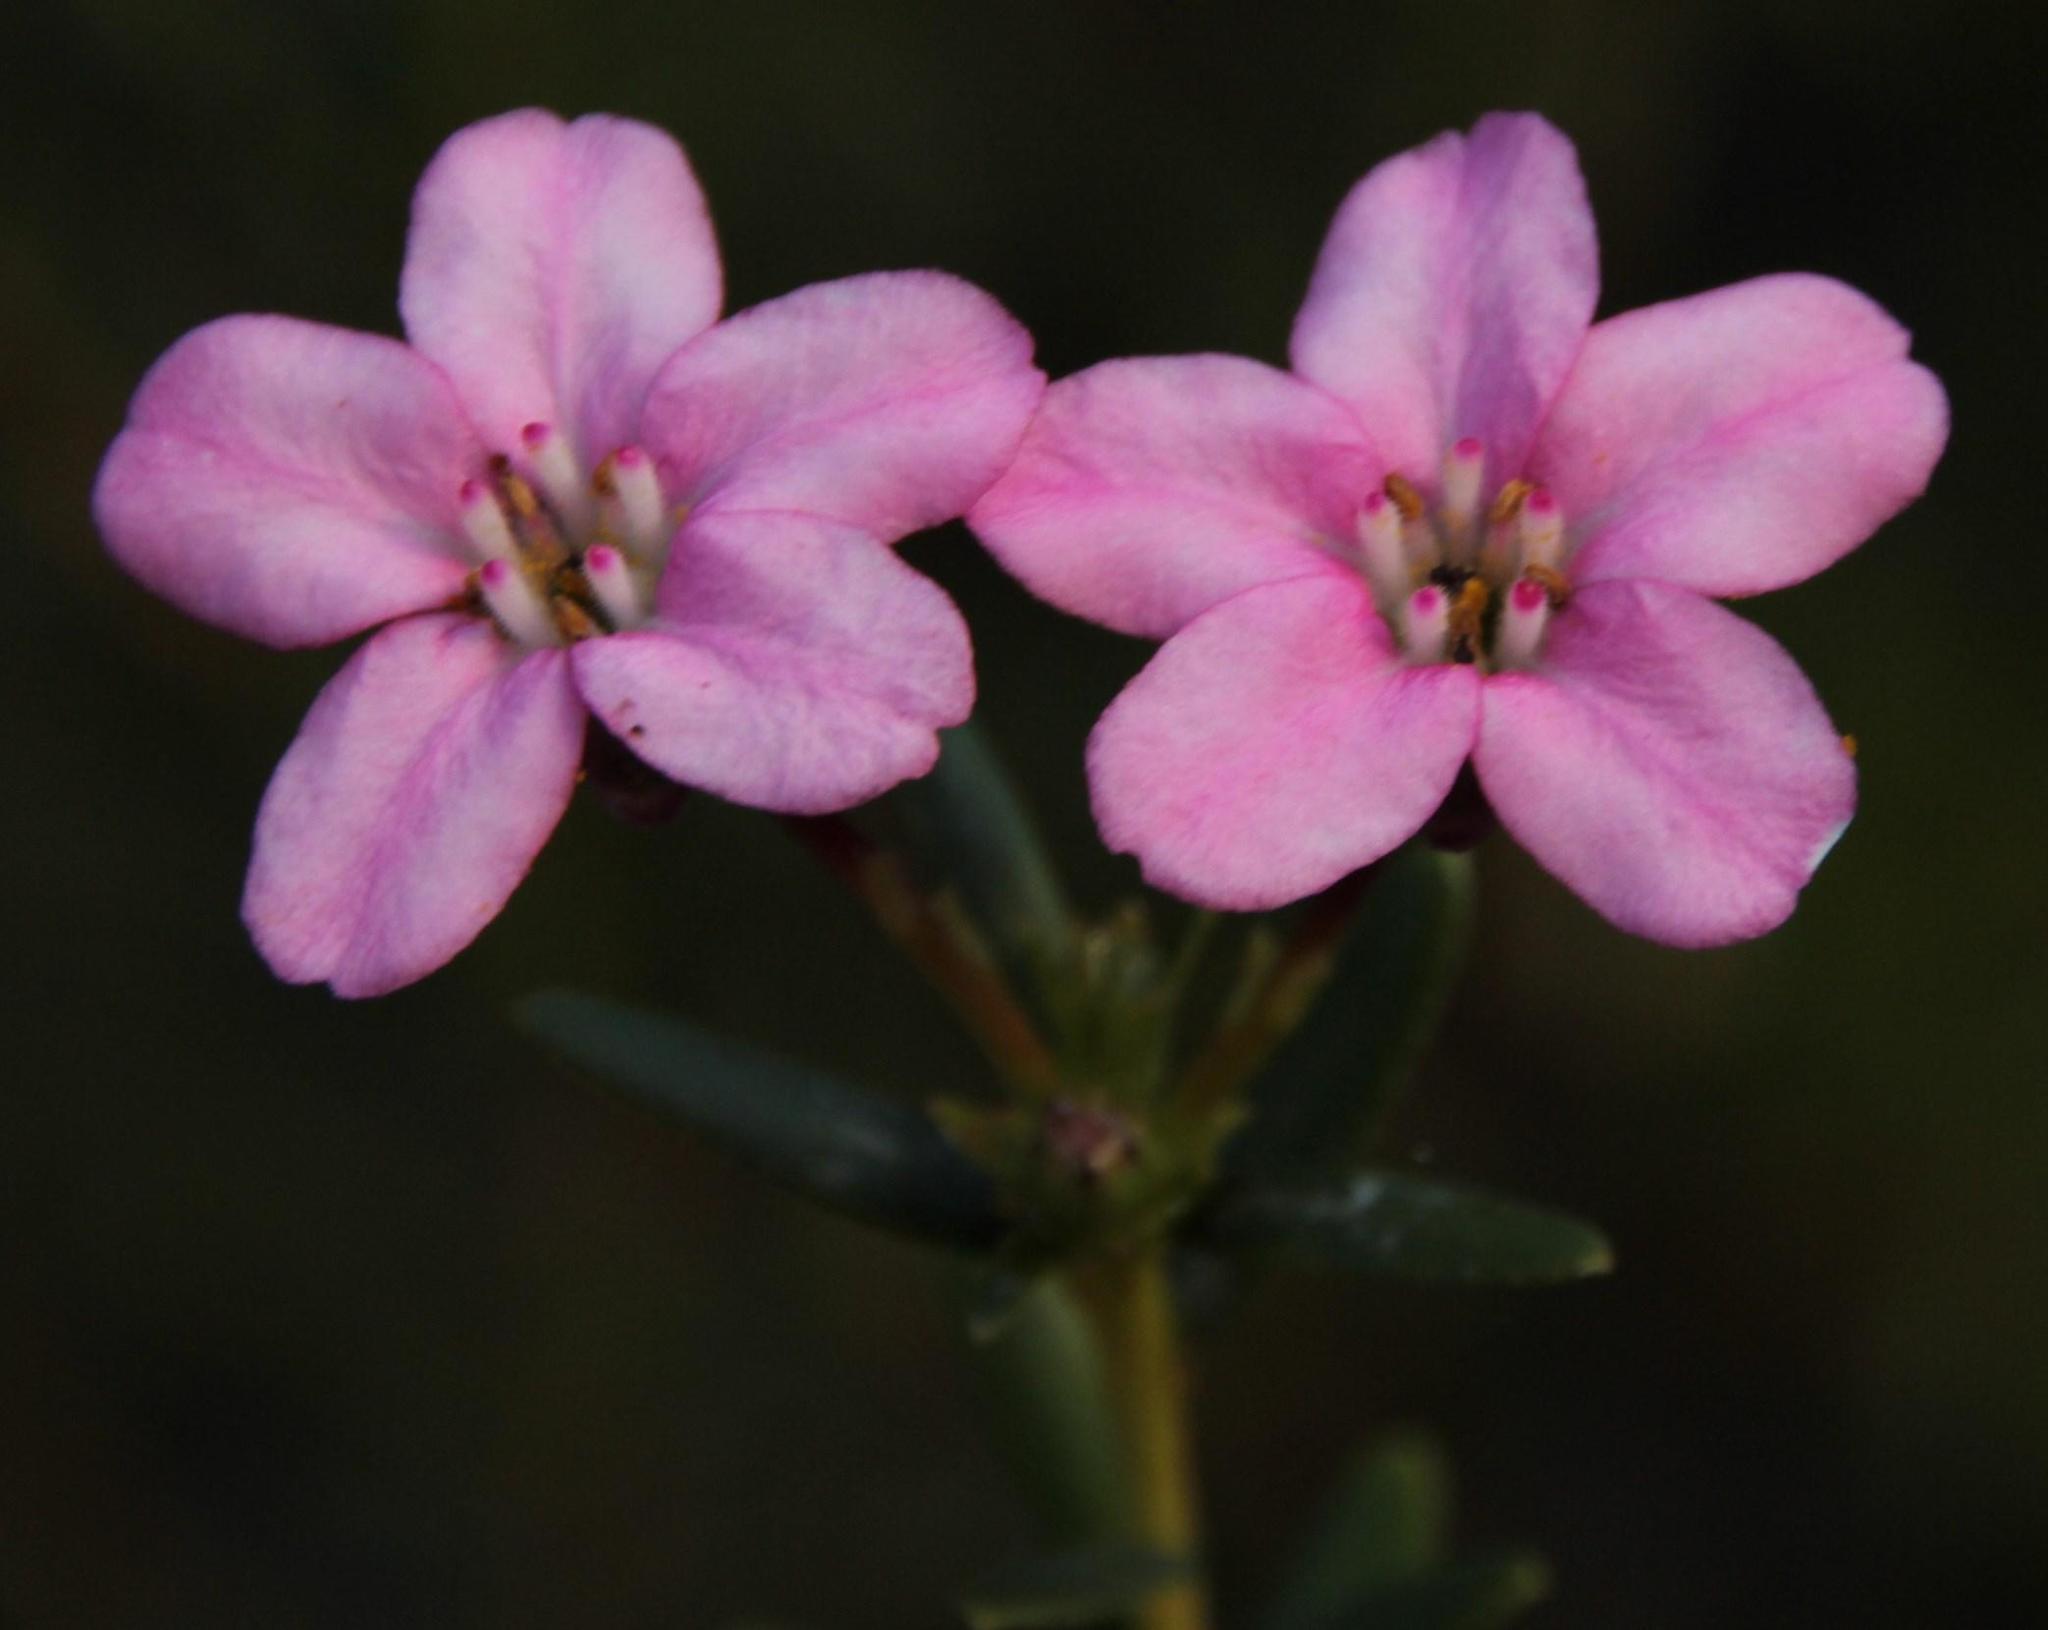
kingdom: Plantae
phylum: Tracheophyta
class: Magnoliopsida
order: Sapindales
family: Rutaceae
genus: Adenandra
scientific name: Adenandra fragrans
